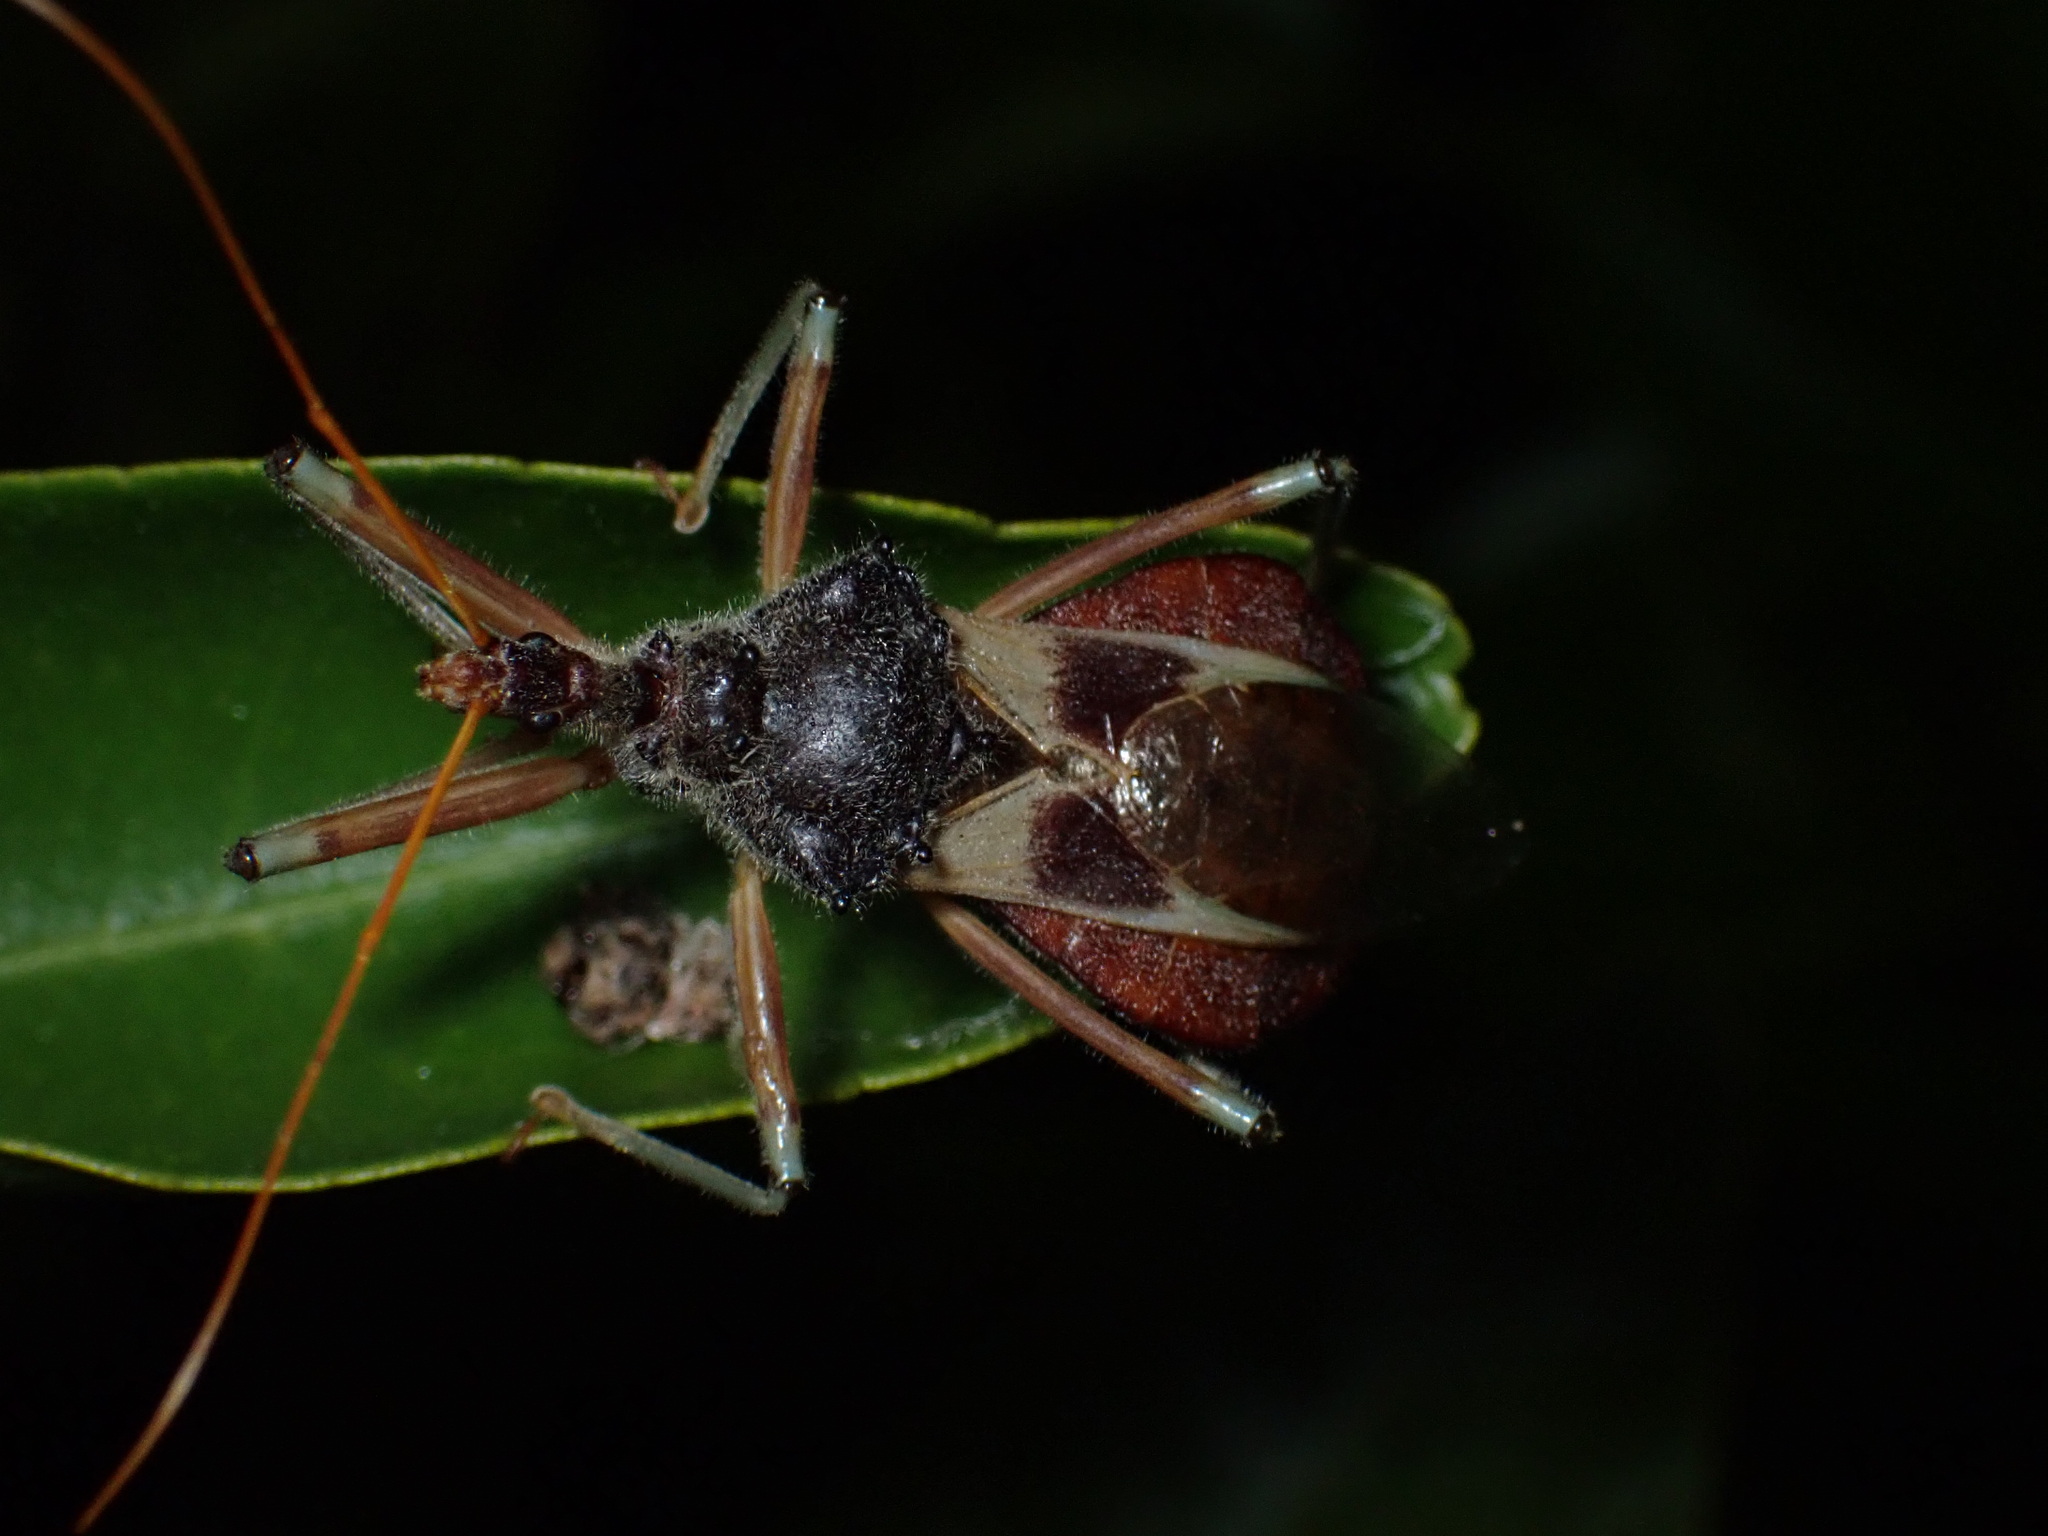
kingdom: Animalia
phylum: Arthropoda
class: Insecta
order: Hemiptera
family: Reduviidae
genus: Pristhesancus
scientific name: Pristhesancus plagipennis
